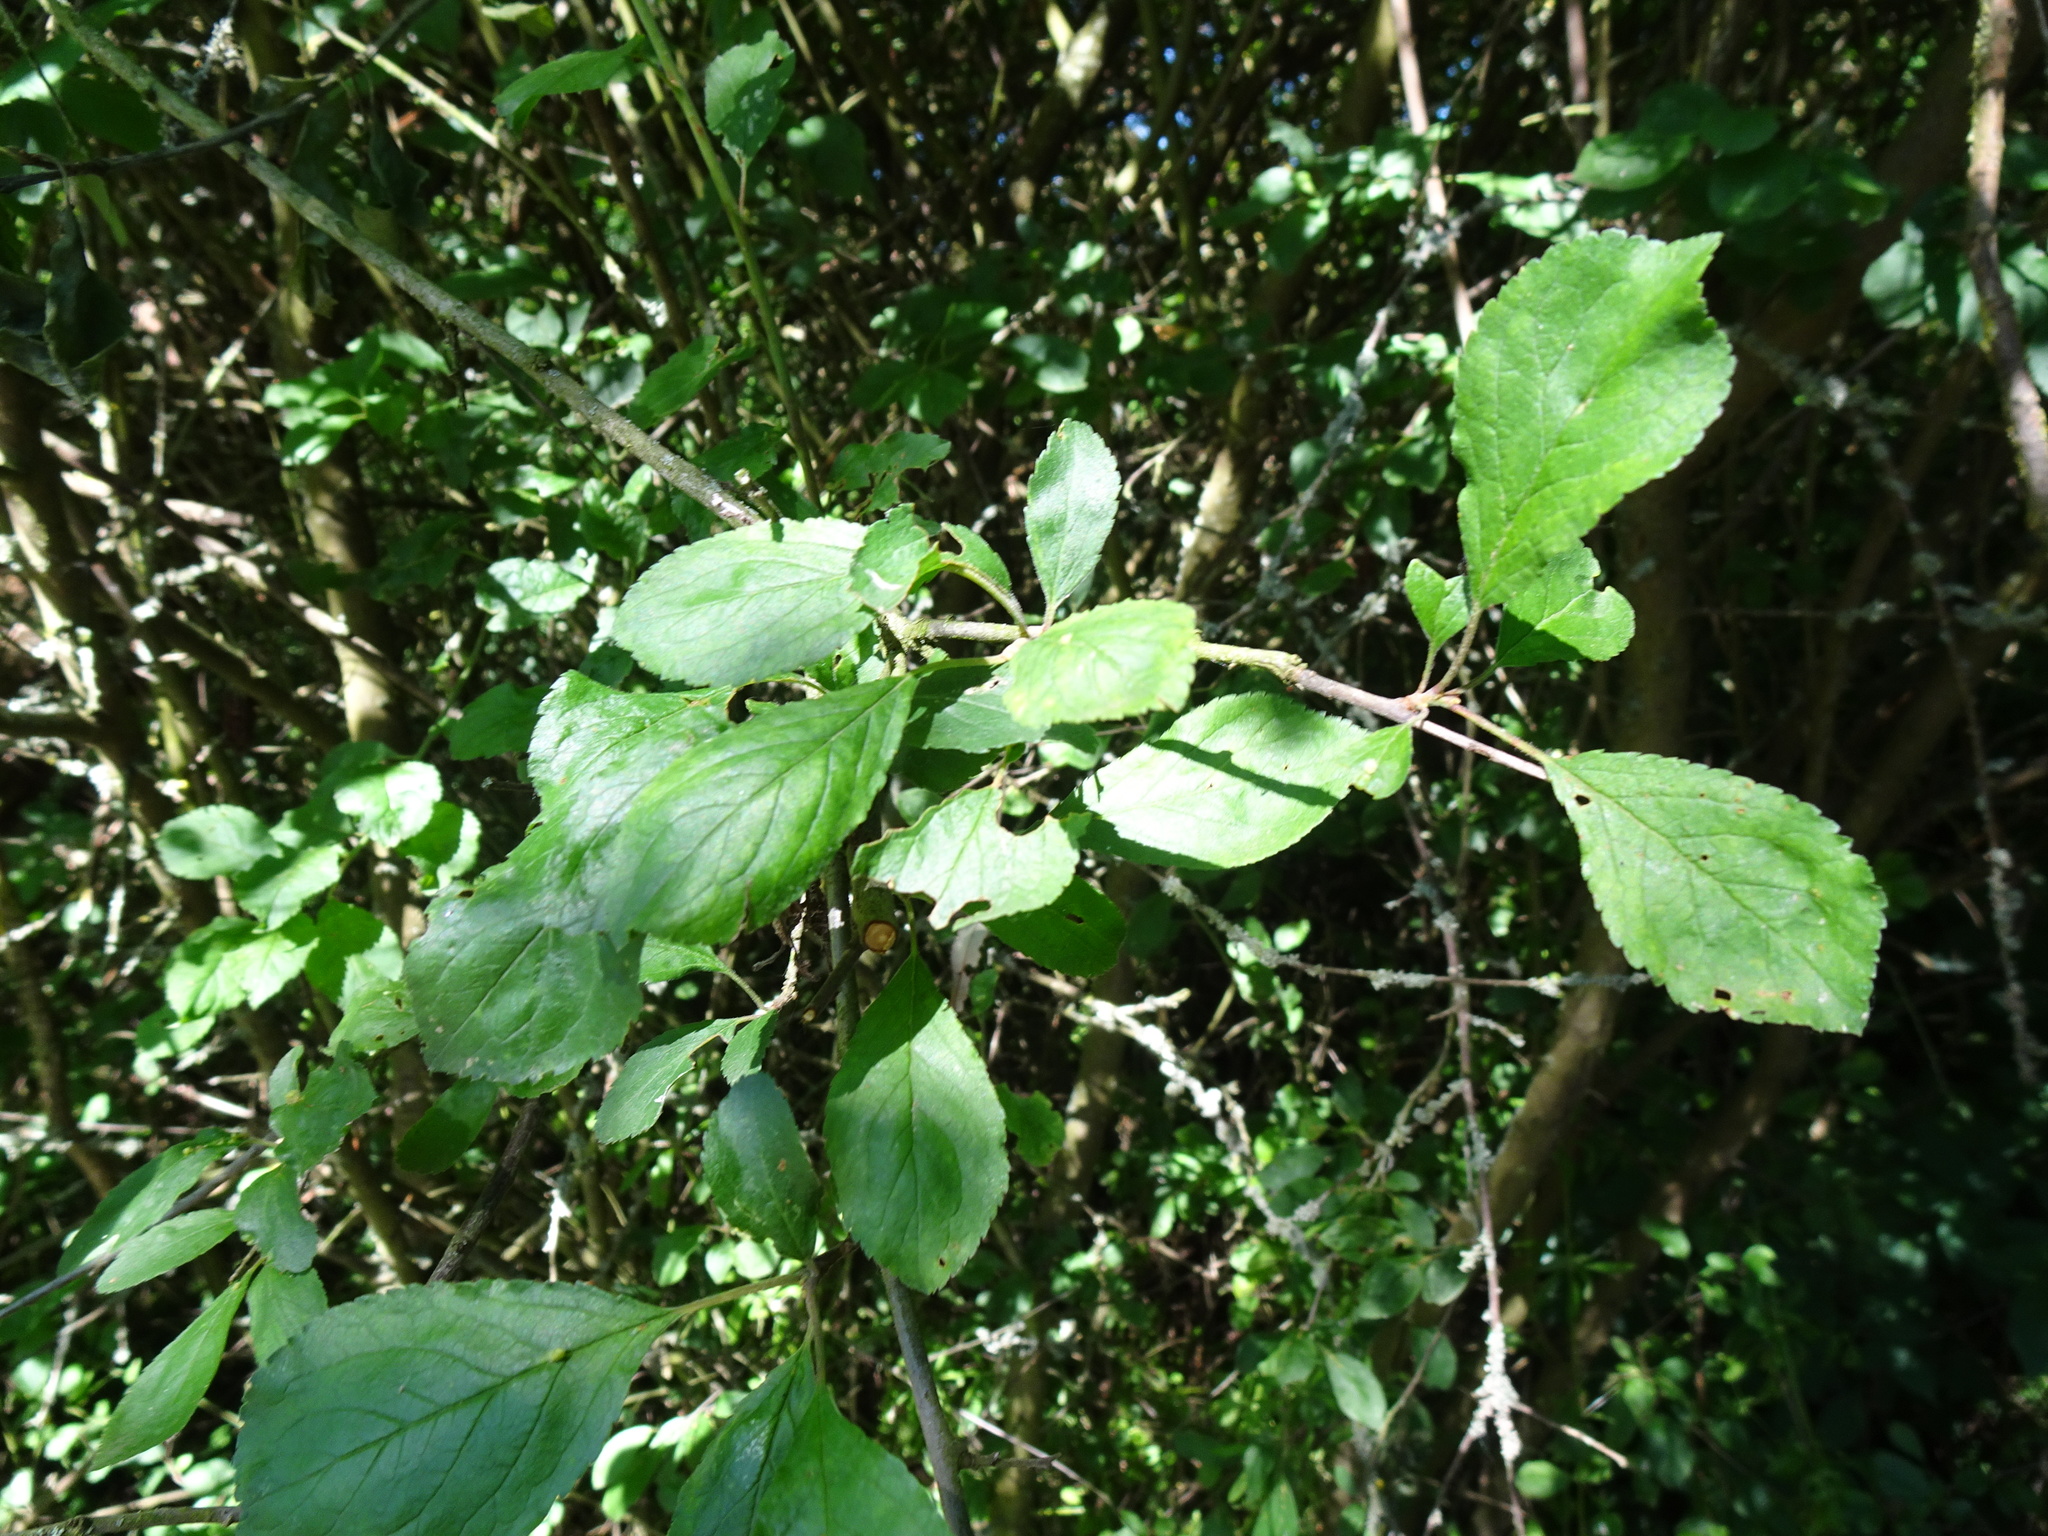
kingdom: Plantae
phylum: Tracheophyta
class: Magnoliopsida
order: Rosales
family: Rosaceae
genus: Prunus
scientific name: Prunus spinosa
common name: Blackthorn
